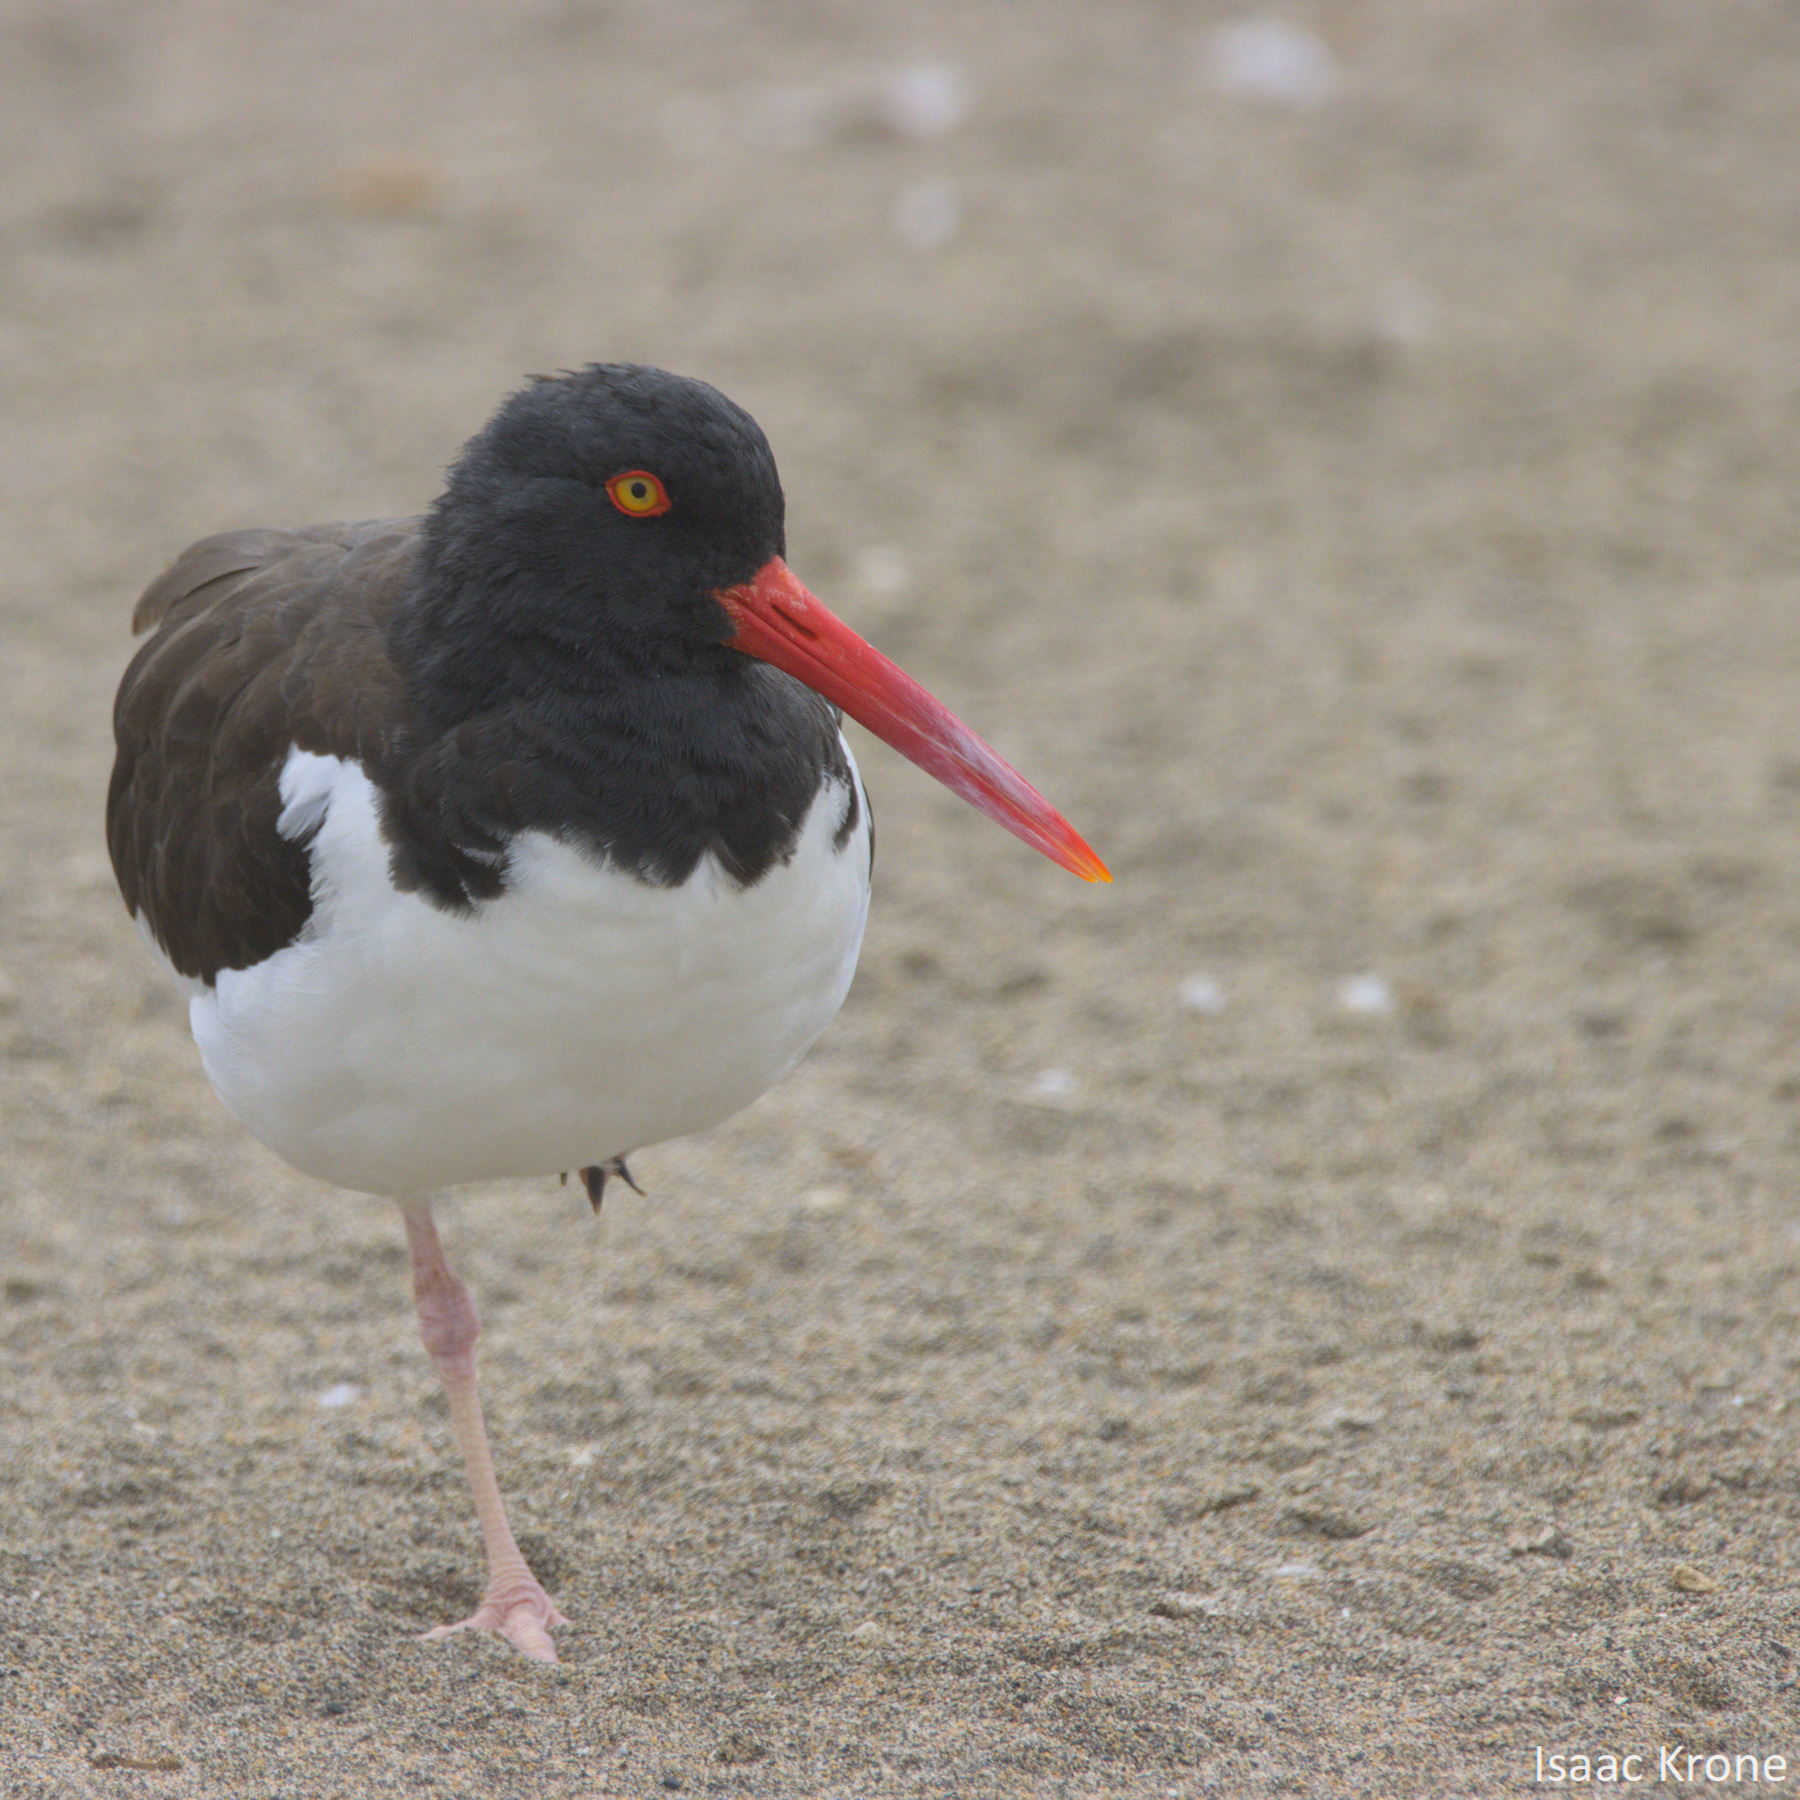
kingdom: Animalia
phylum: Chordata
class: Aves
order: Charadriiformes
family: Haematopodidae
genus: Haematopus
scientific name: Haematopus palliatus
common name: American oystercatcher
